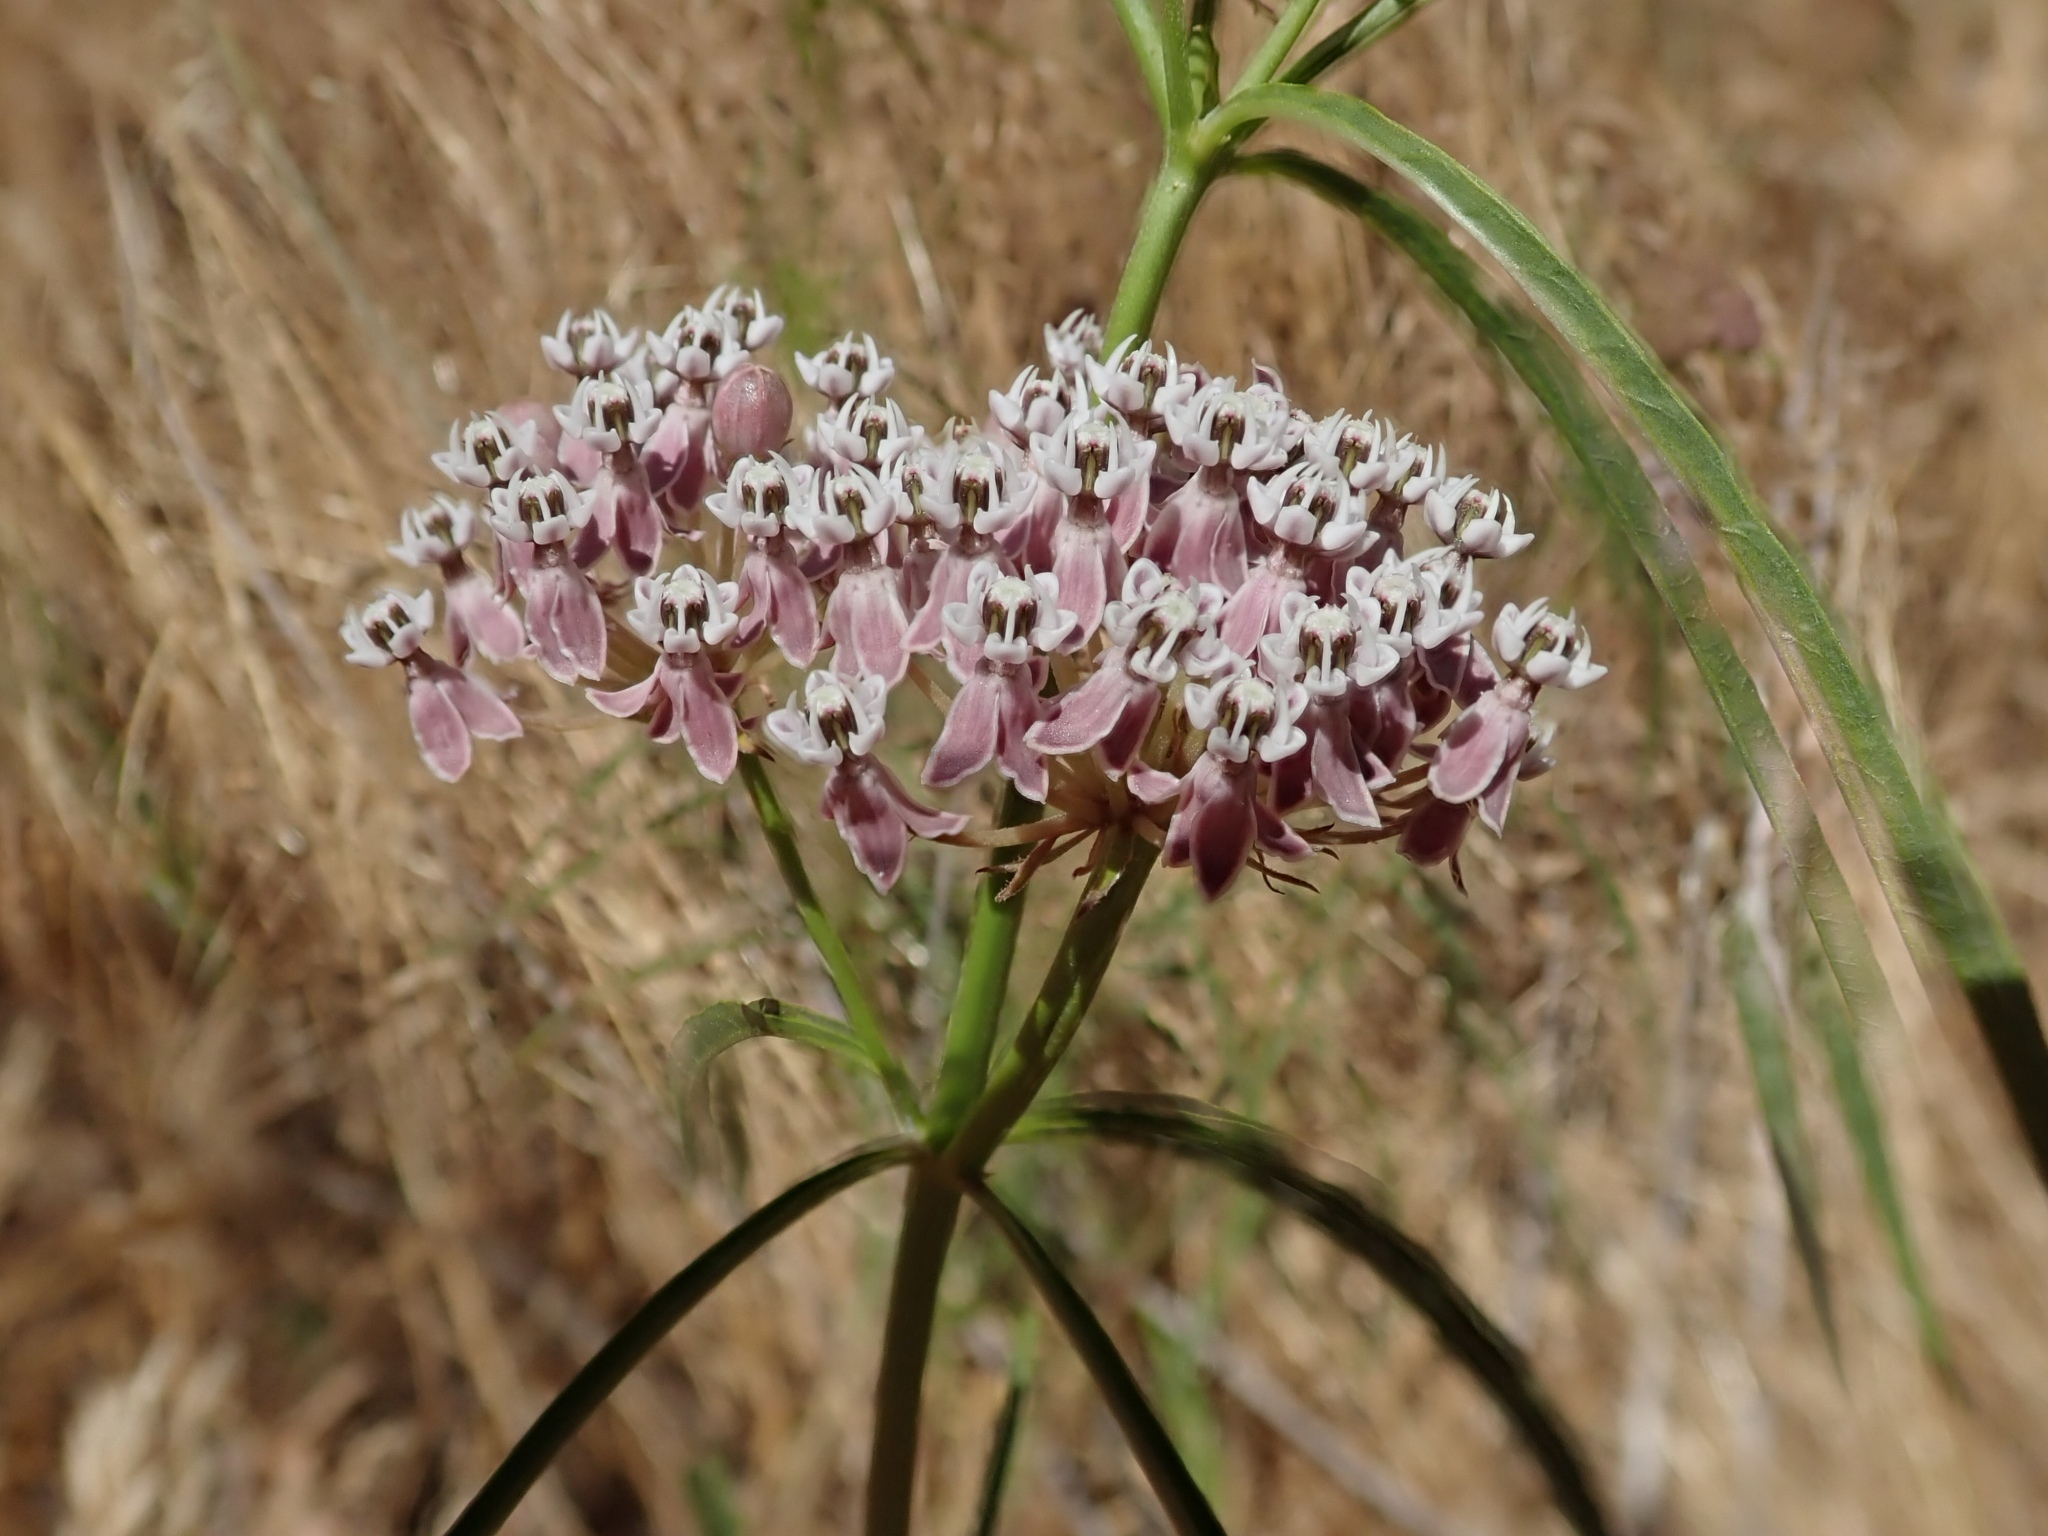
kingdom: Plantae
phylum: Tracheophyta
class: Magnoliopsida
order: Gentianales
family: Apocynaceae
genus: Asclepias
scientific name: Asclepias fascicularis
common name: Mexican milkweed
